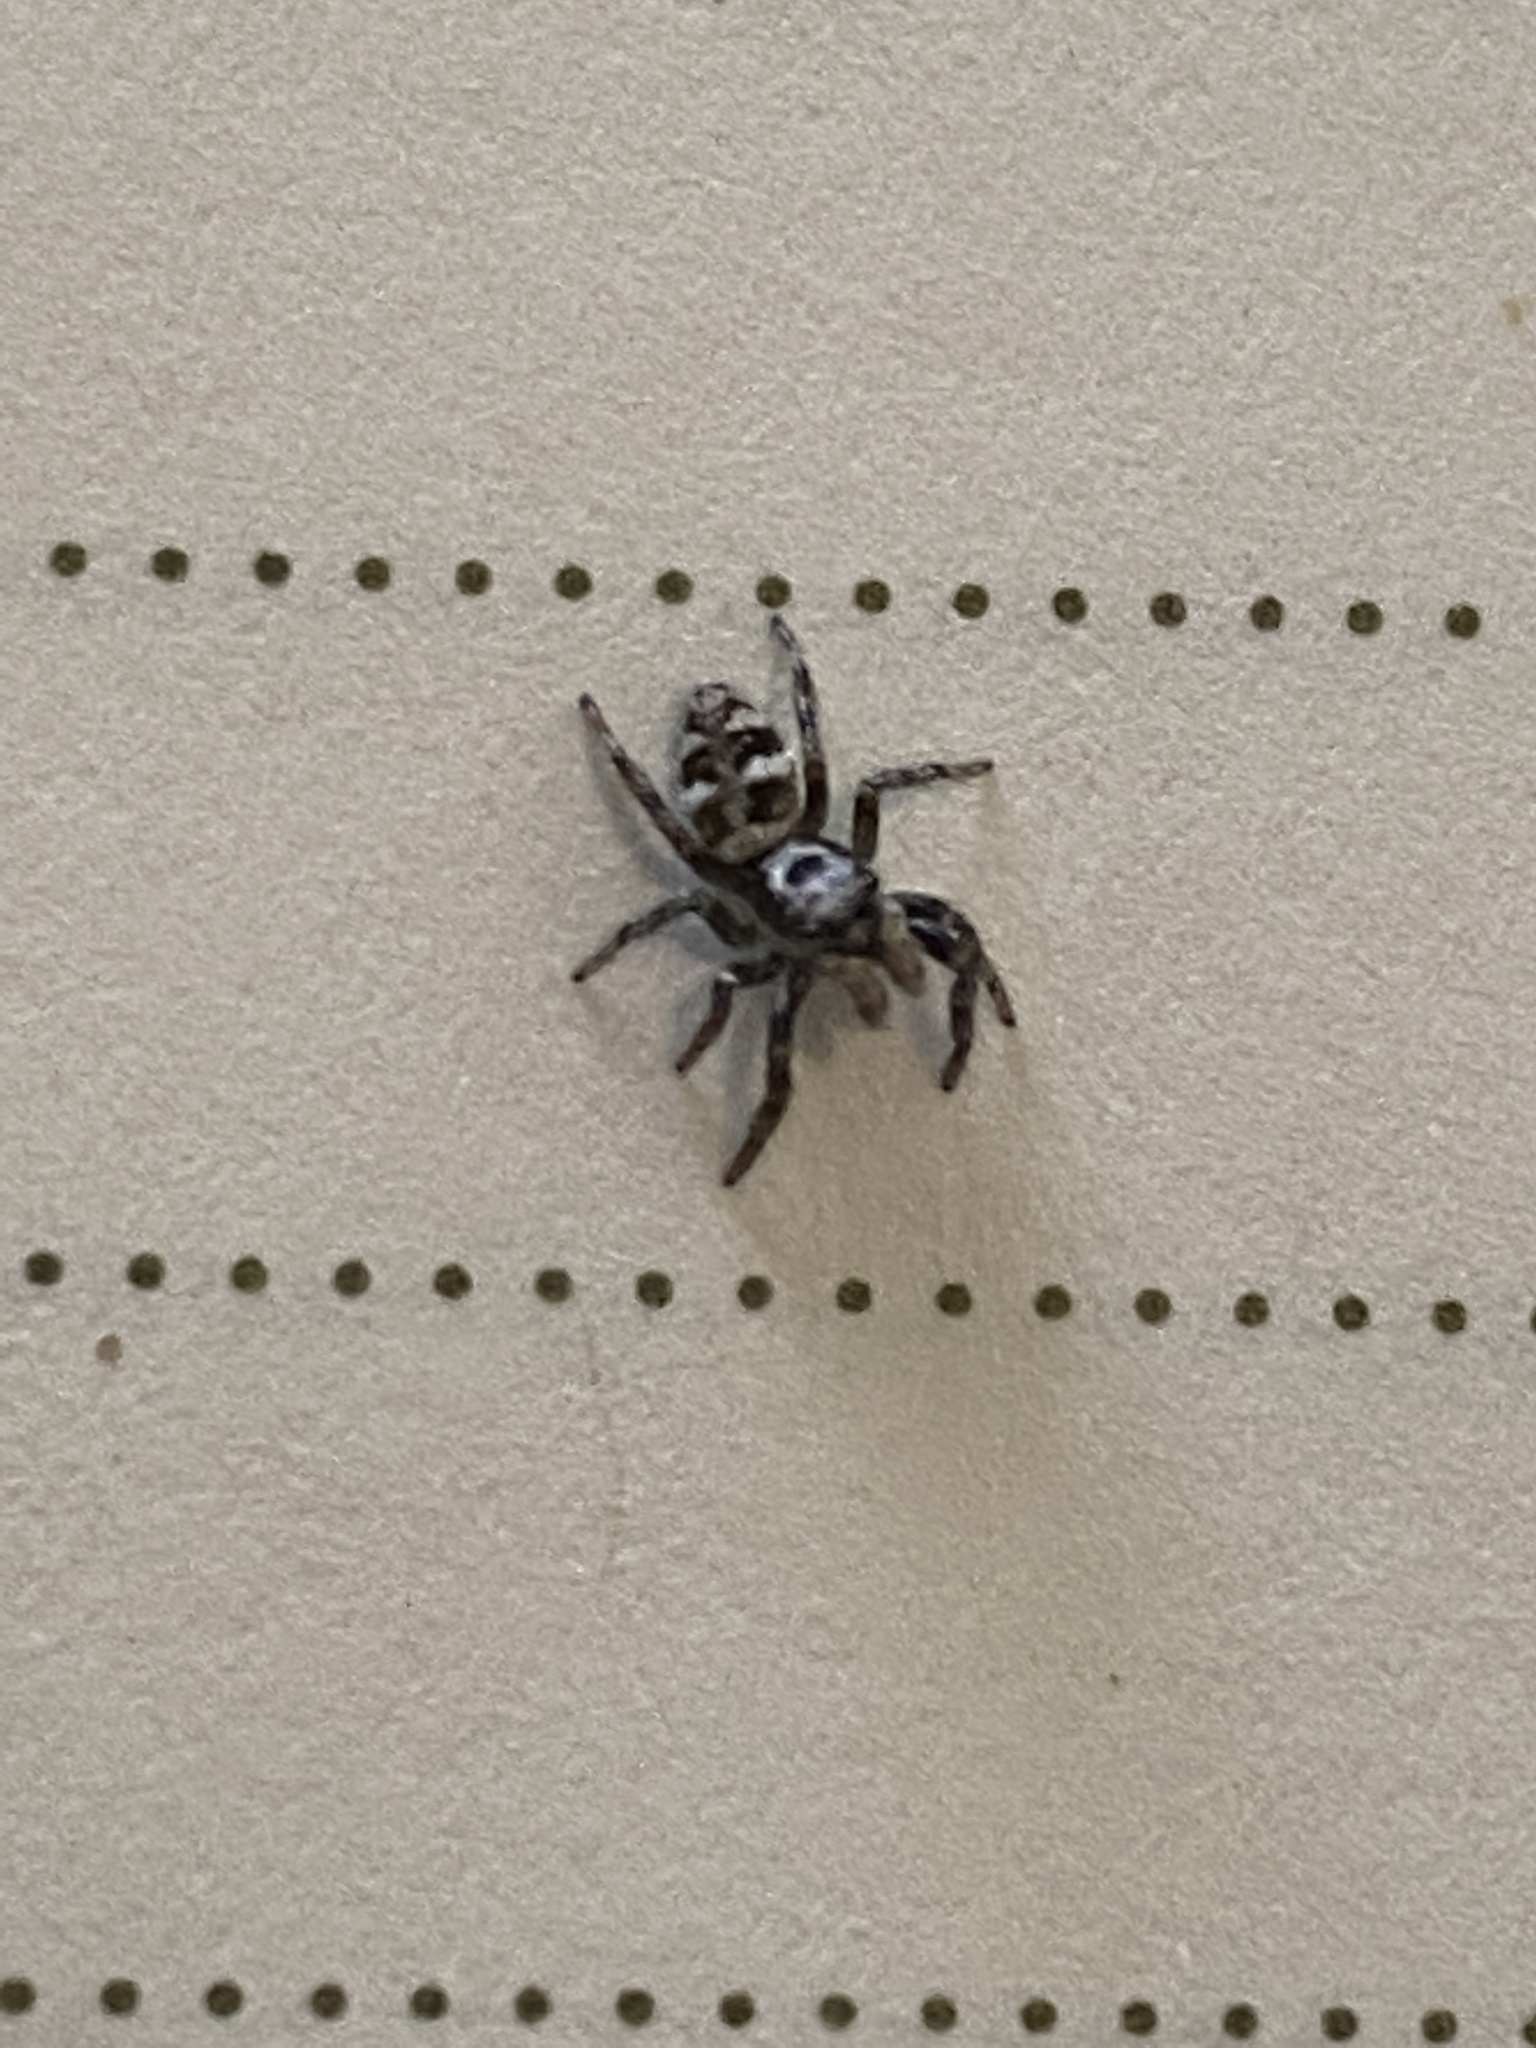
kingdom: Animalia
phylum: Arthropoda
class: Arachnida
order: Araneae
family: Salticidae
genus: Salticus
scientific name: Salticus scenicus
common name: Zebra jumper
